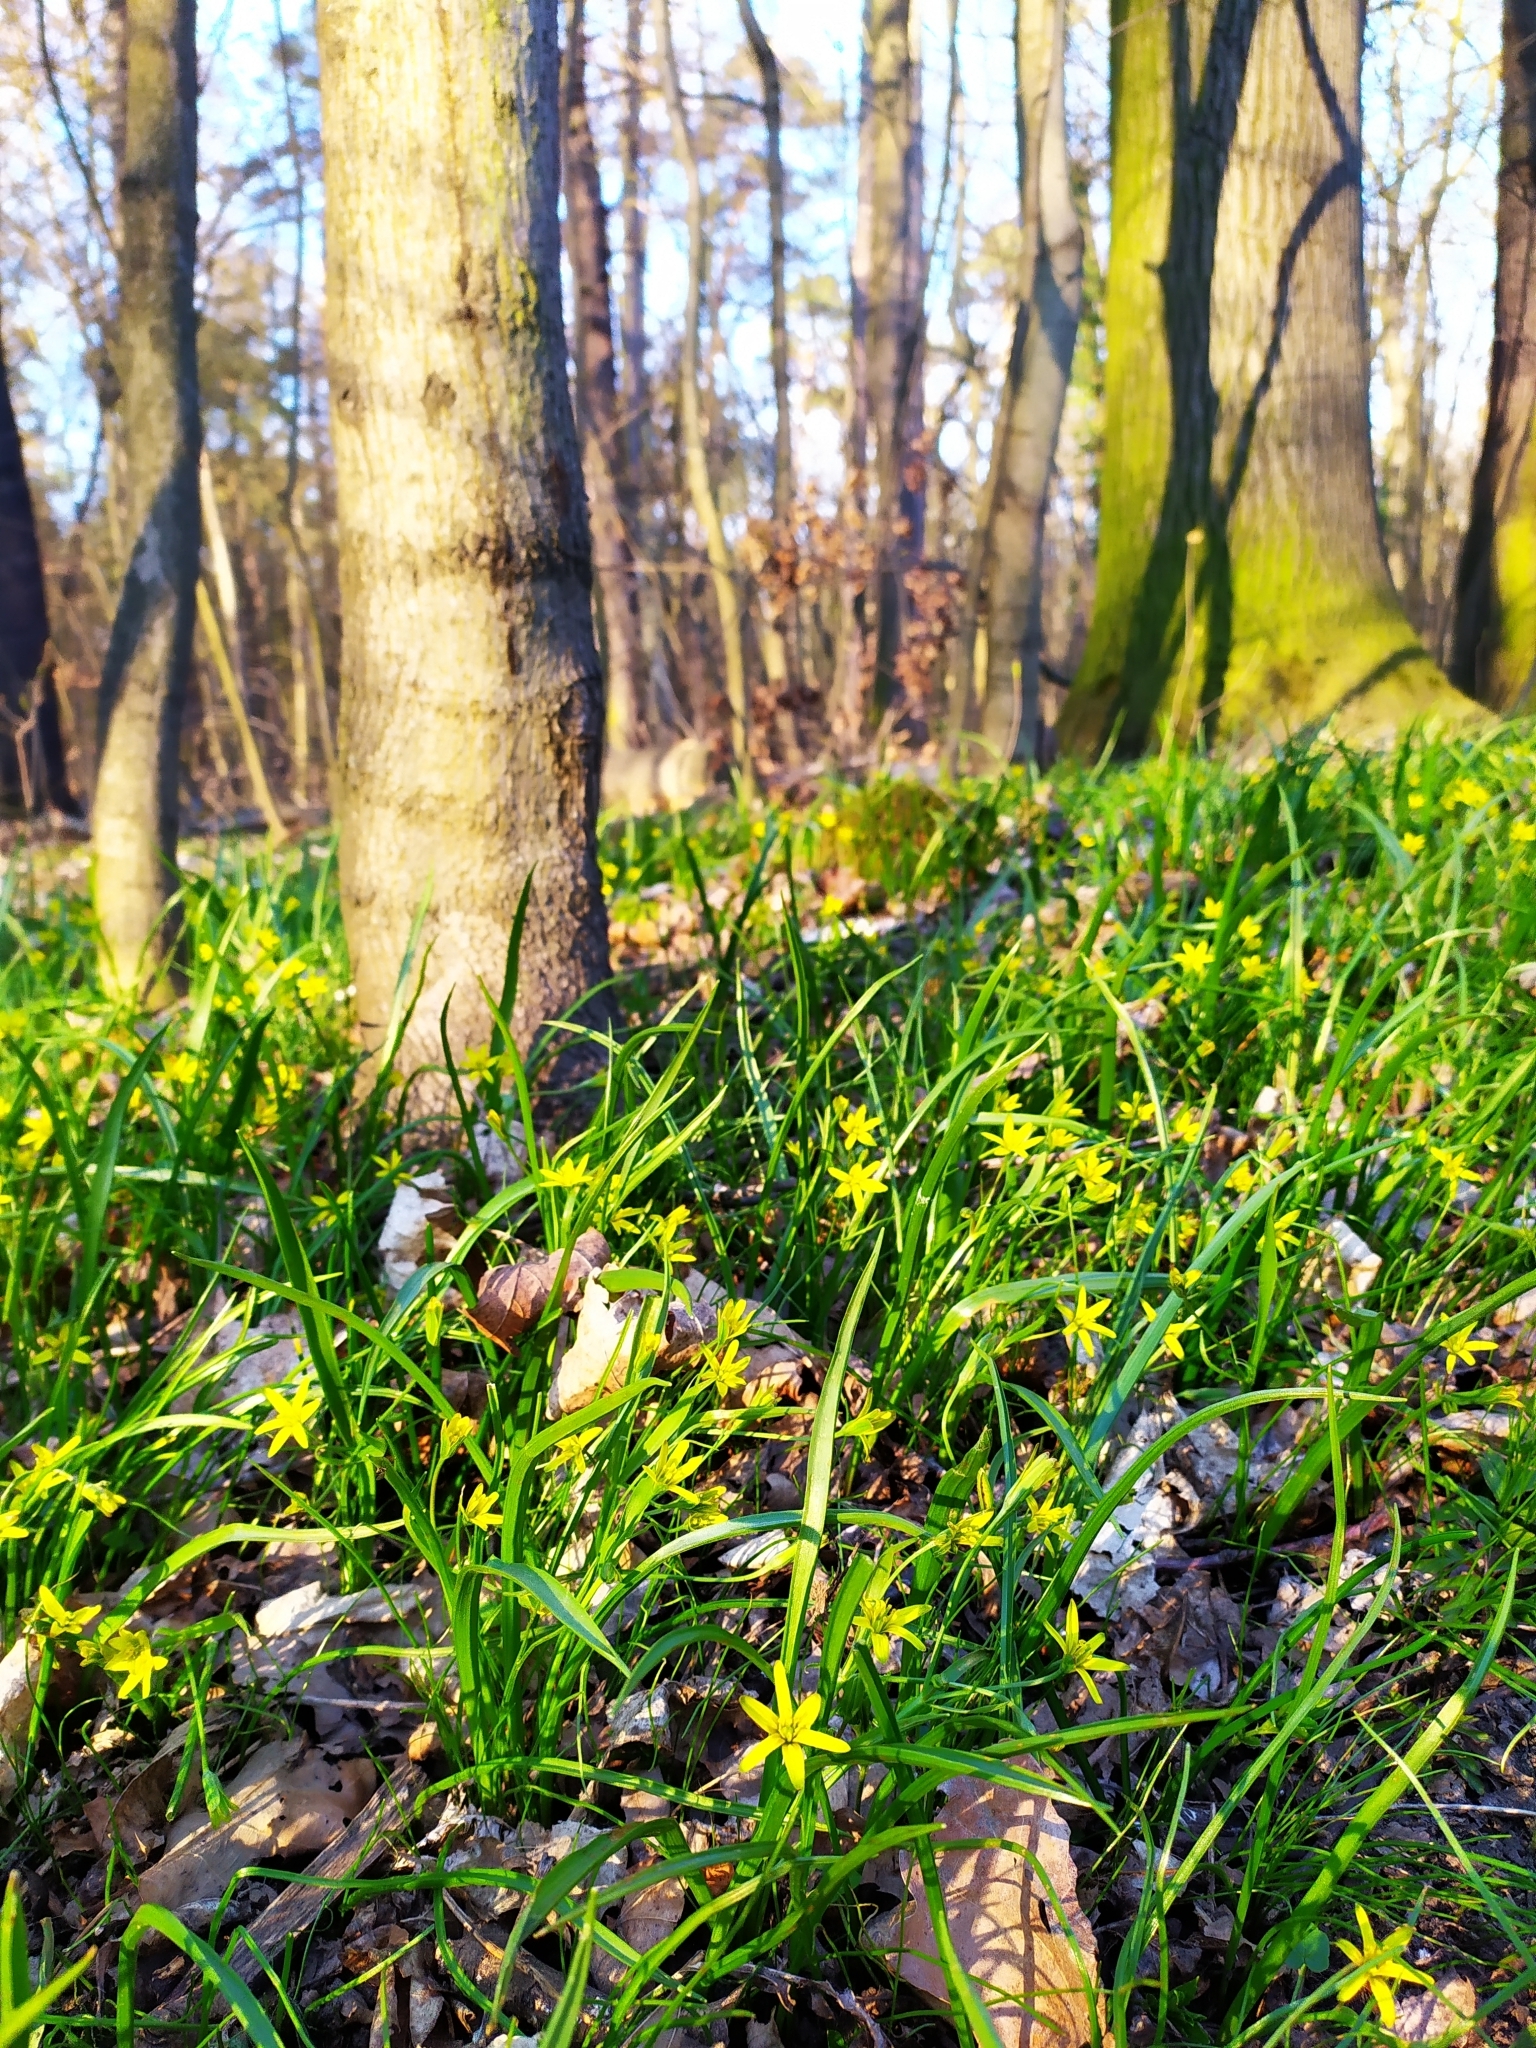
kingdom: Plantae
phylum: Tracheophyta
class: Liliopsida
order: Liliales
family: Liliaceae
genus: Gagea
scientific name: Gagea lutea
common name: Yellow star-of-bethlehem
